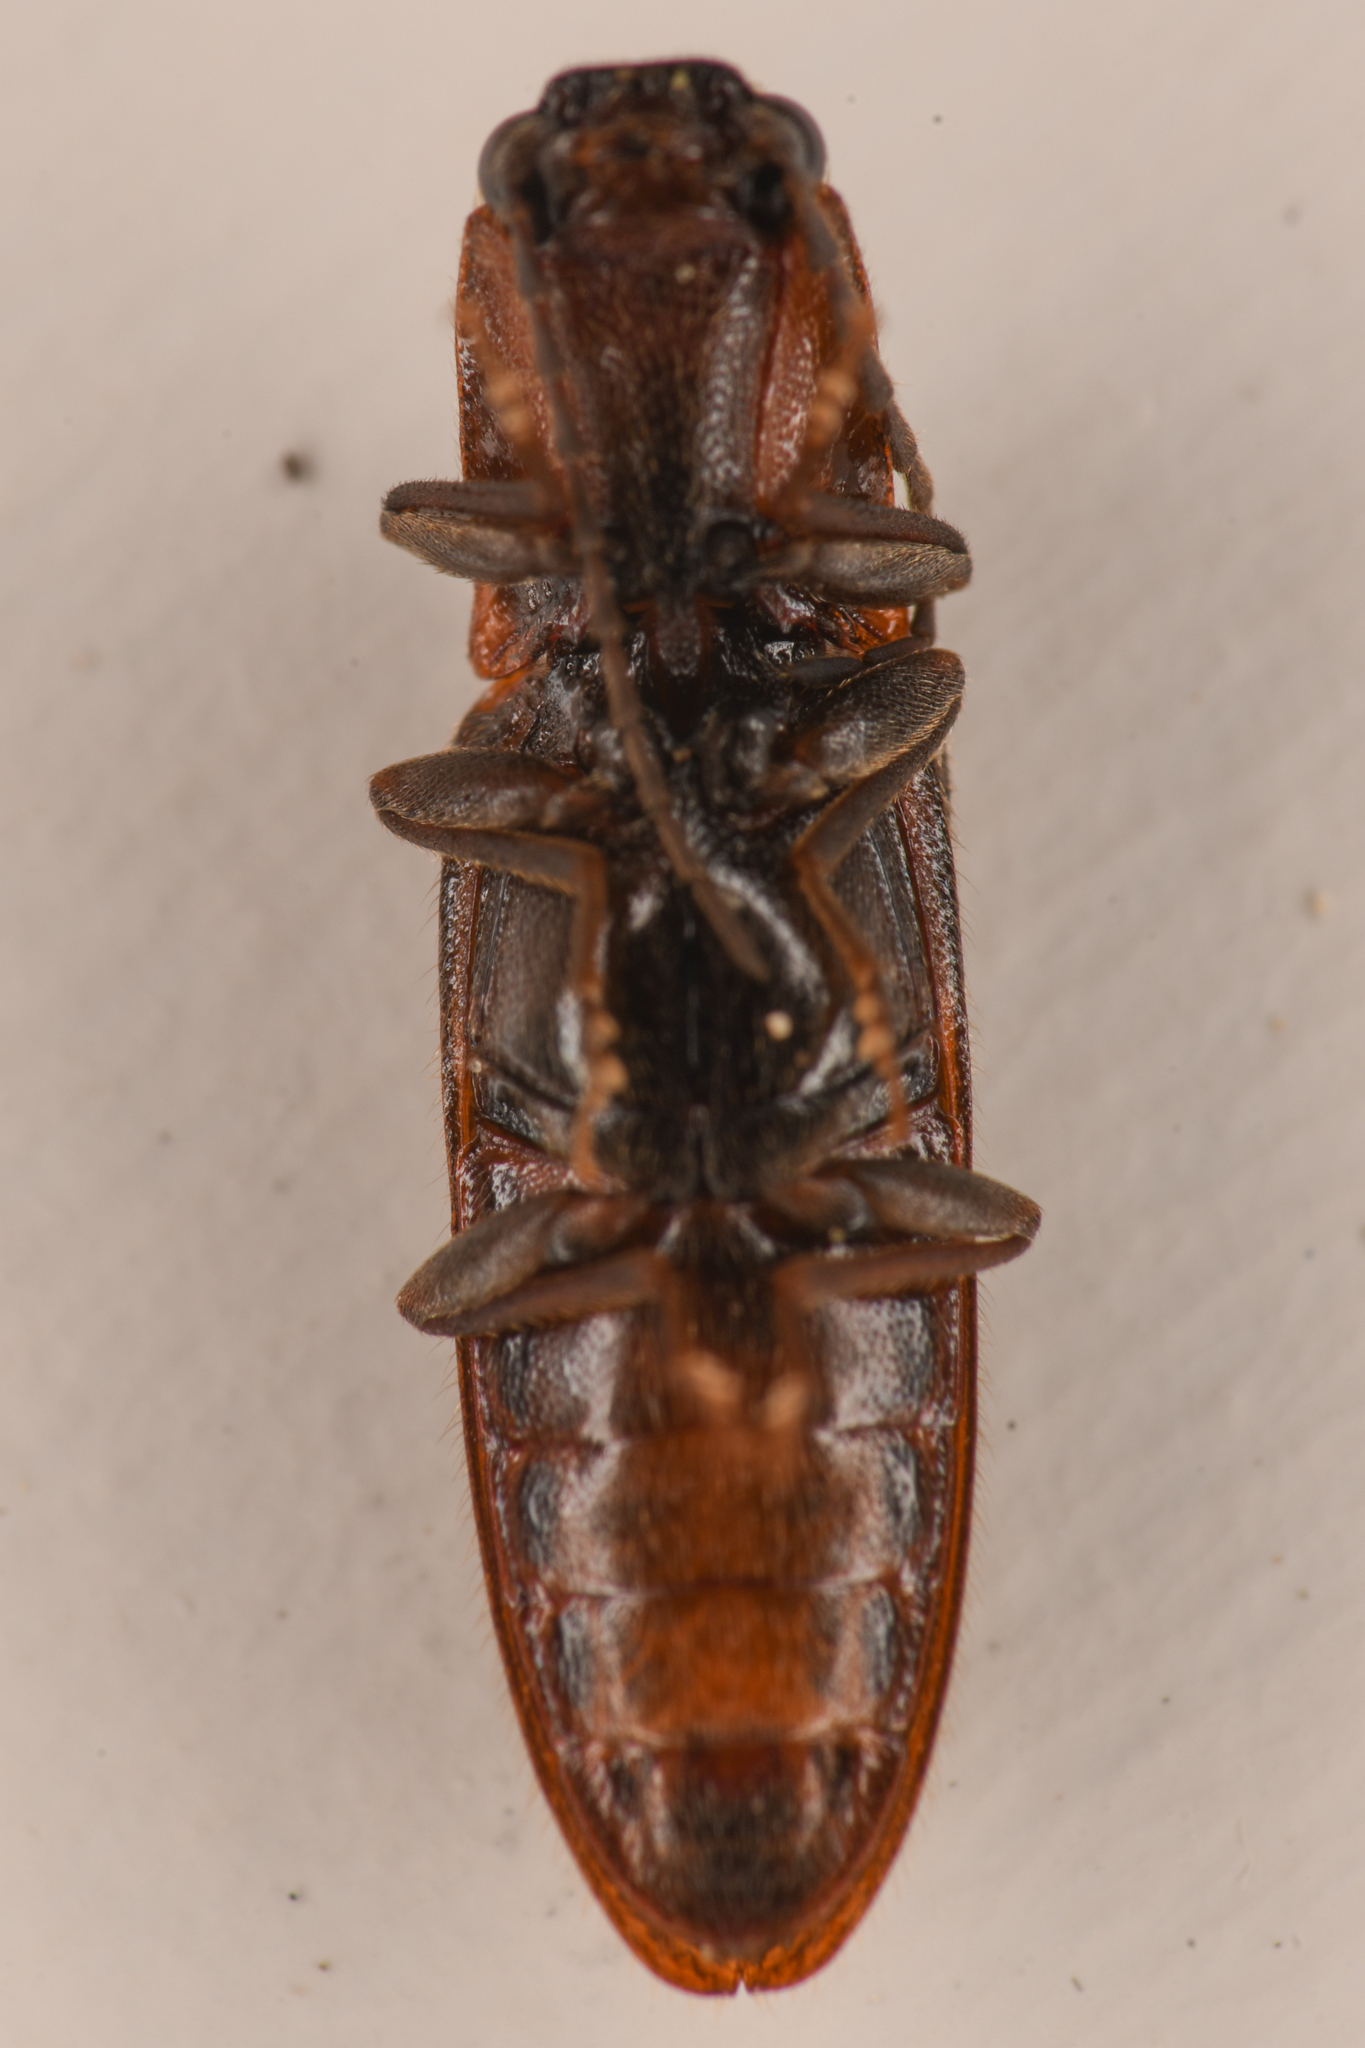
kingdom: Animalia
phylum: Arthropoda
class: Insecta
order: Coleoptera
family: Elateridae
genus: Athous
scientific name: Athous rufiventris
